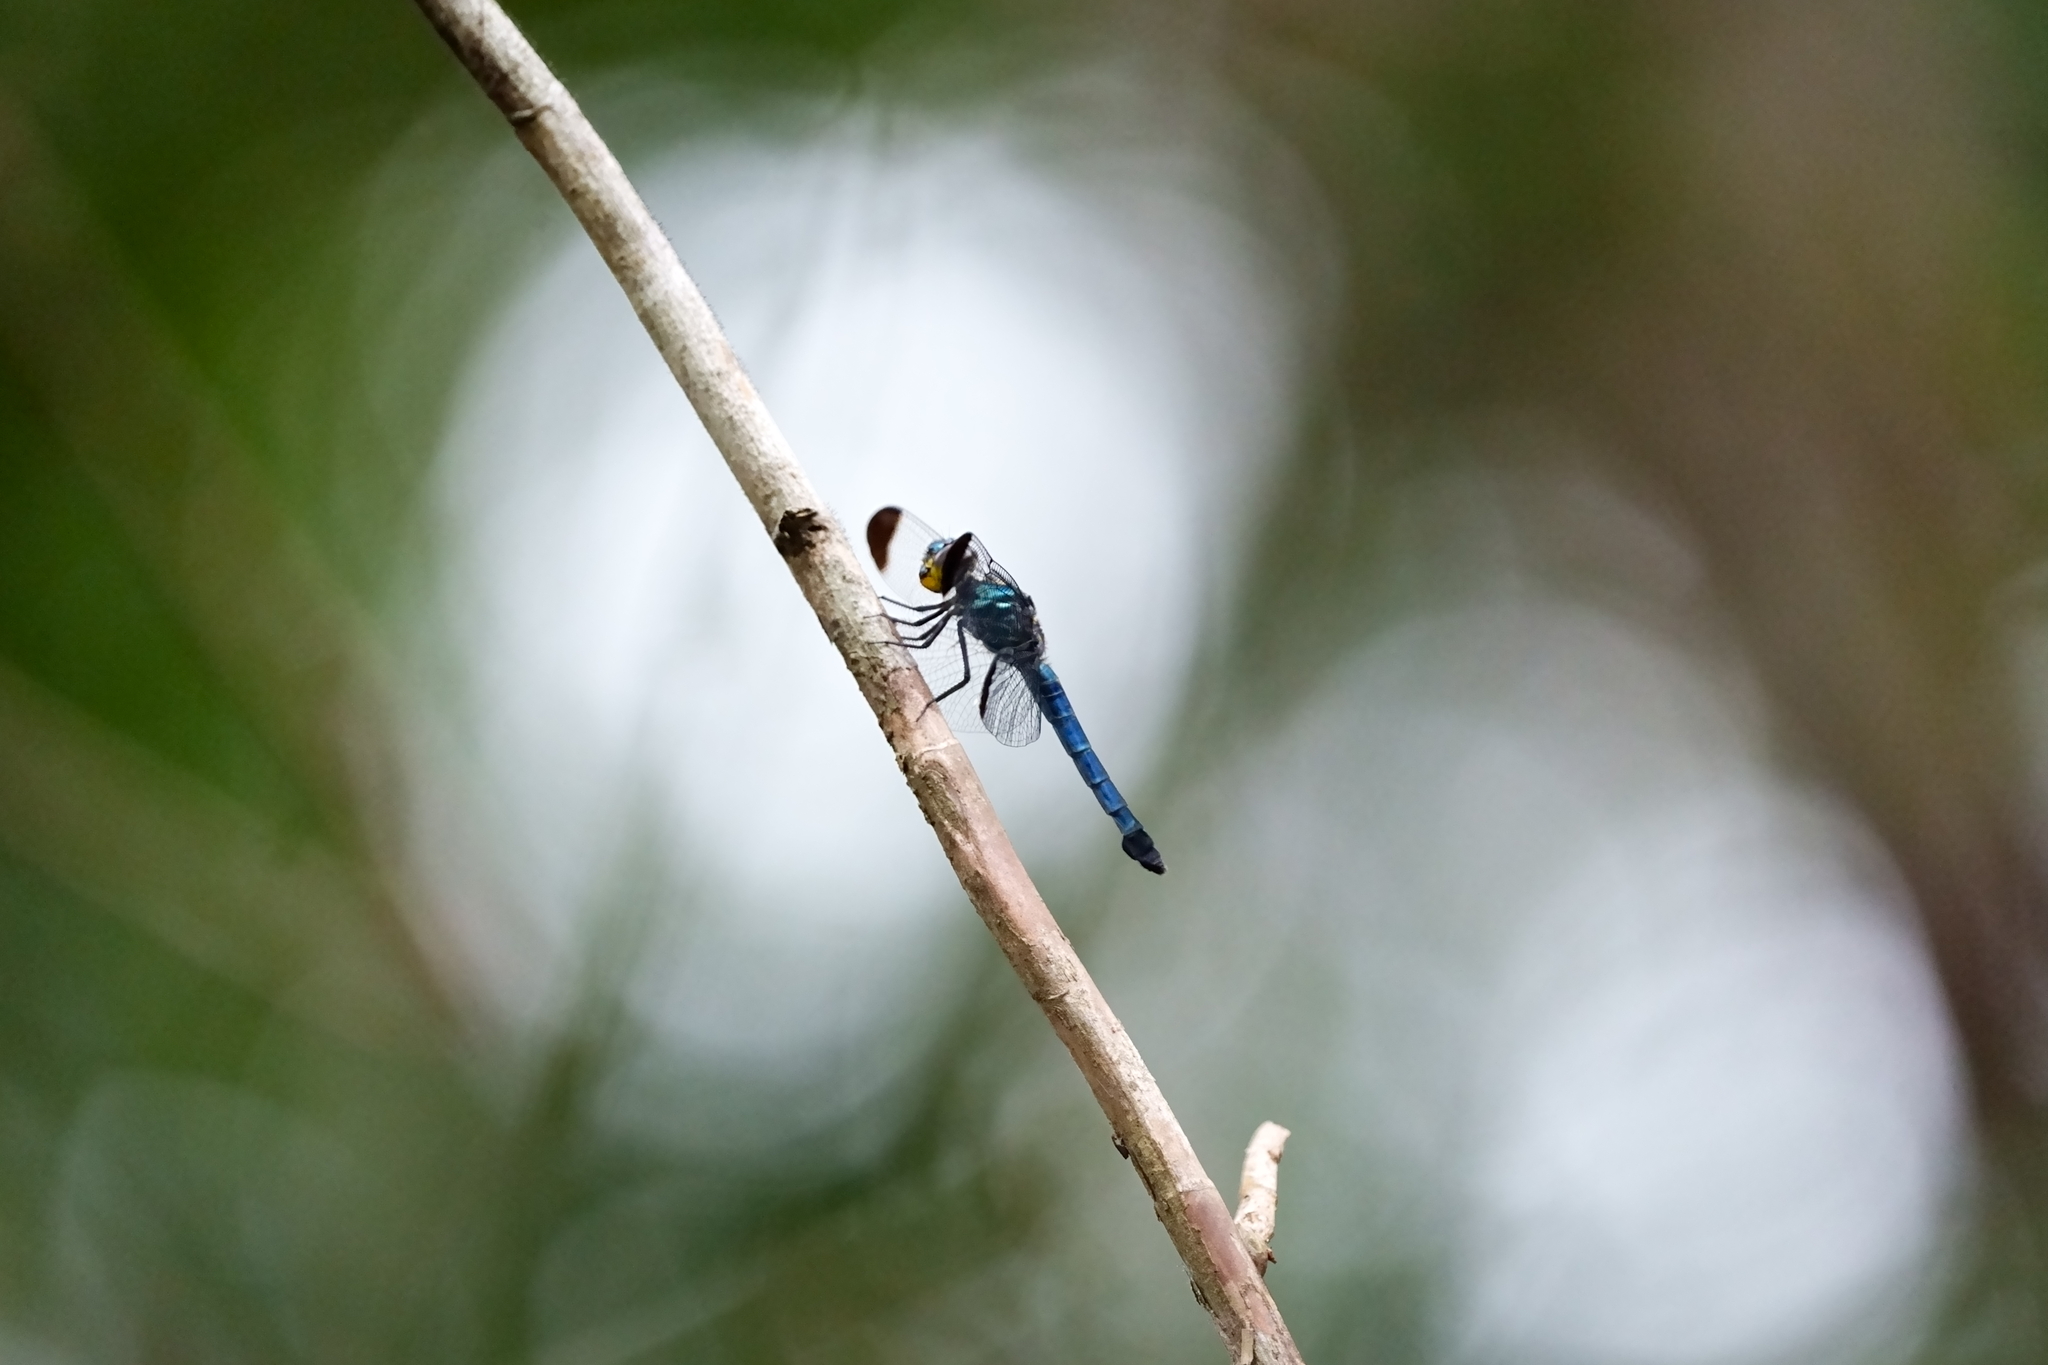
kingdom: Animalia
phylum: Arthropoda
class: Insecta
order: Odonata
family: Libellulidae
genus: Cratilla
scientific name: Cratilla metallica
